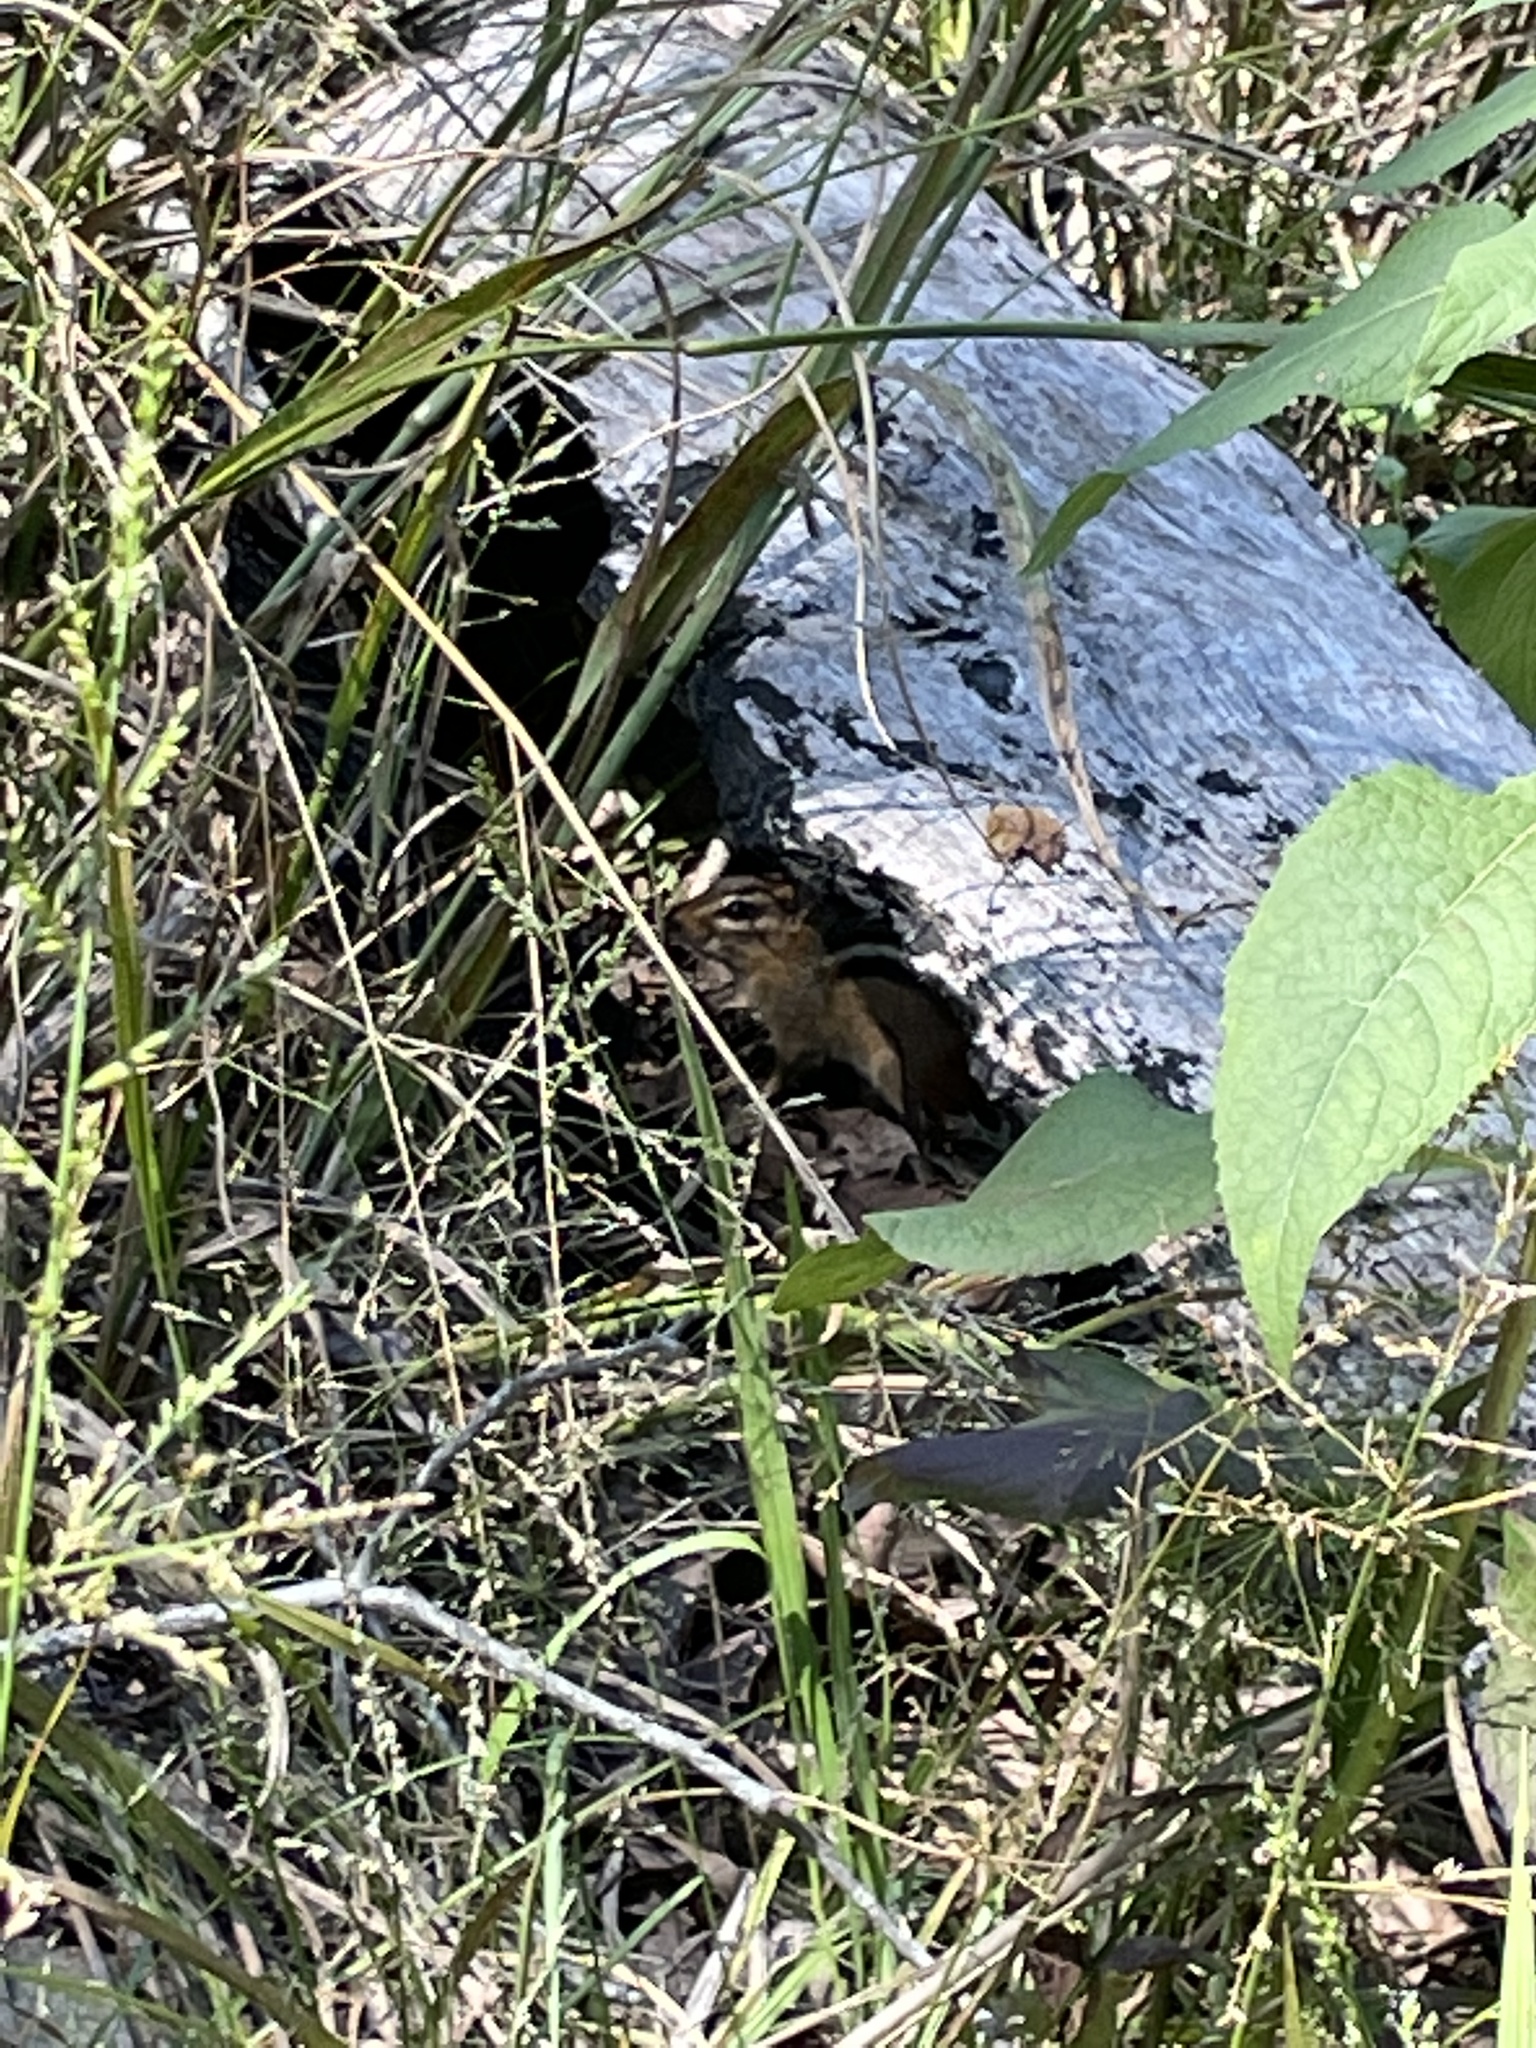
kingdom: Animalia
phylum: Chordata
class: Mammalia
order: Rodentia
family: Sciuridae
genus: Tamias
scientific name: Tamias striatus
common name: Eastern chipmunk
